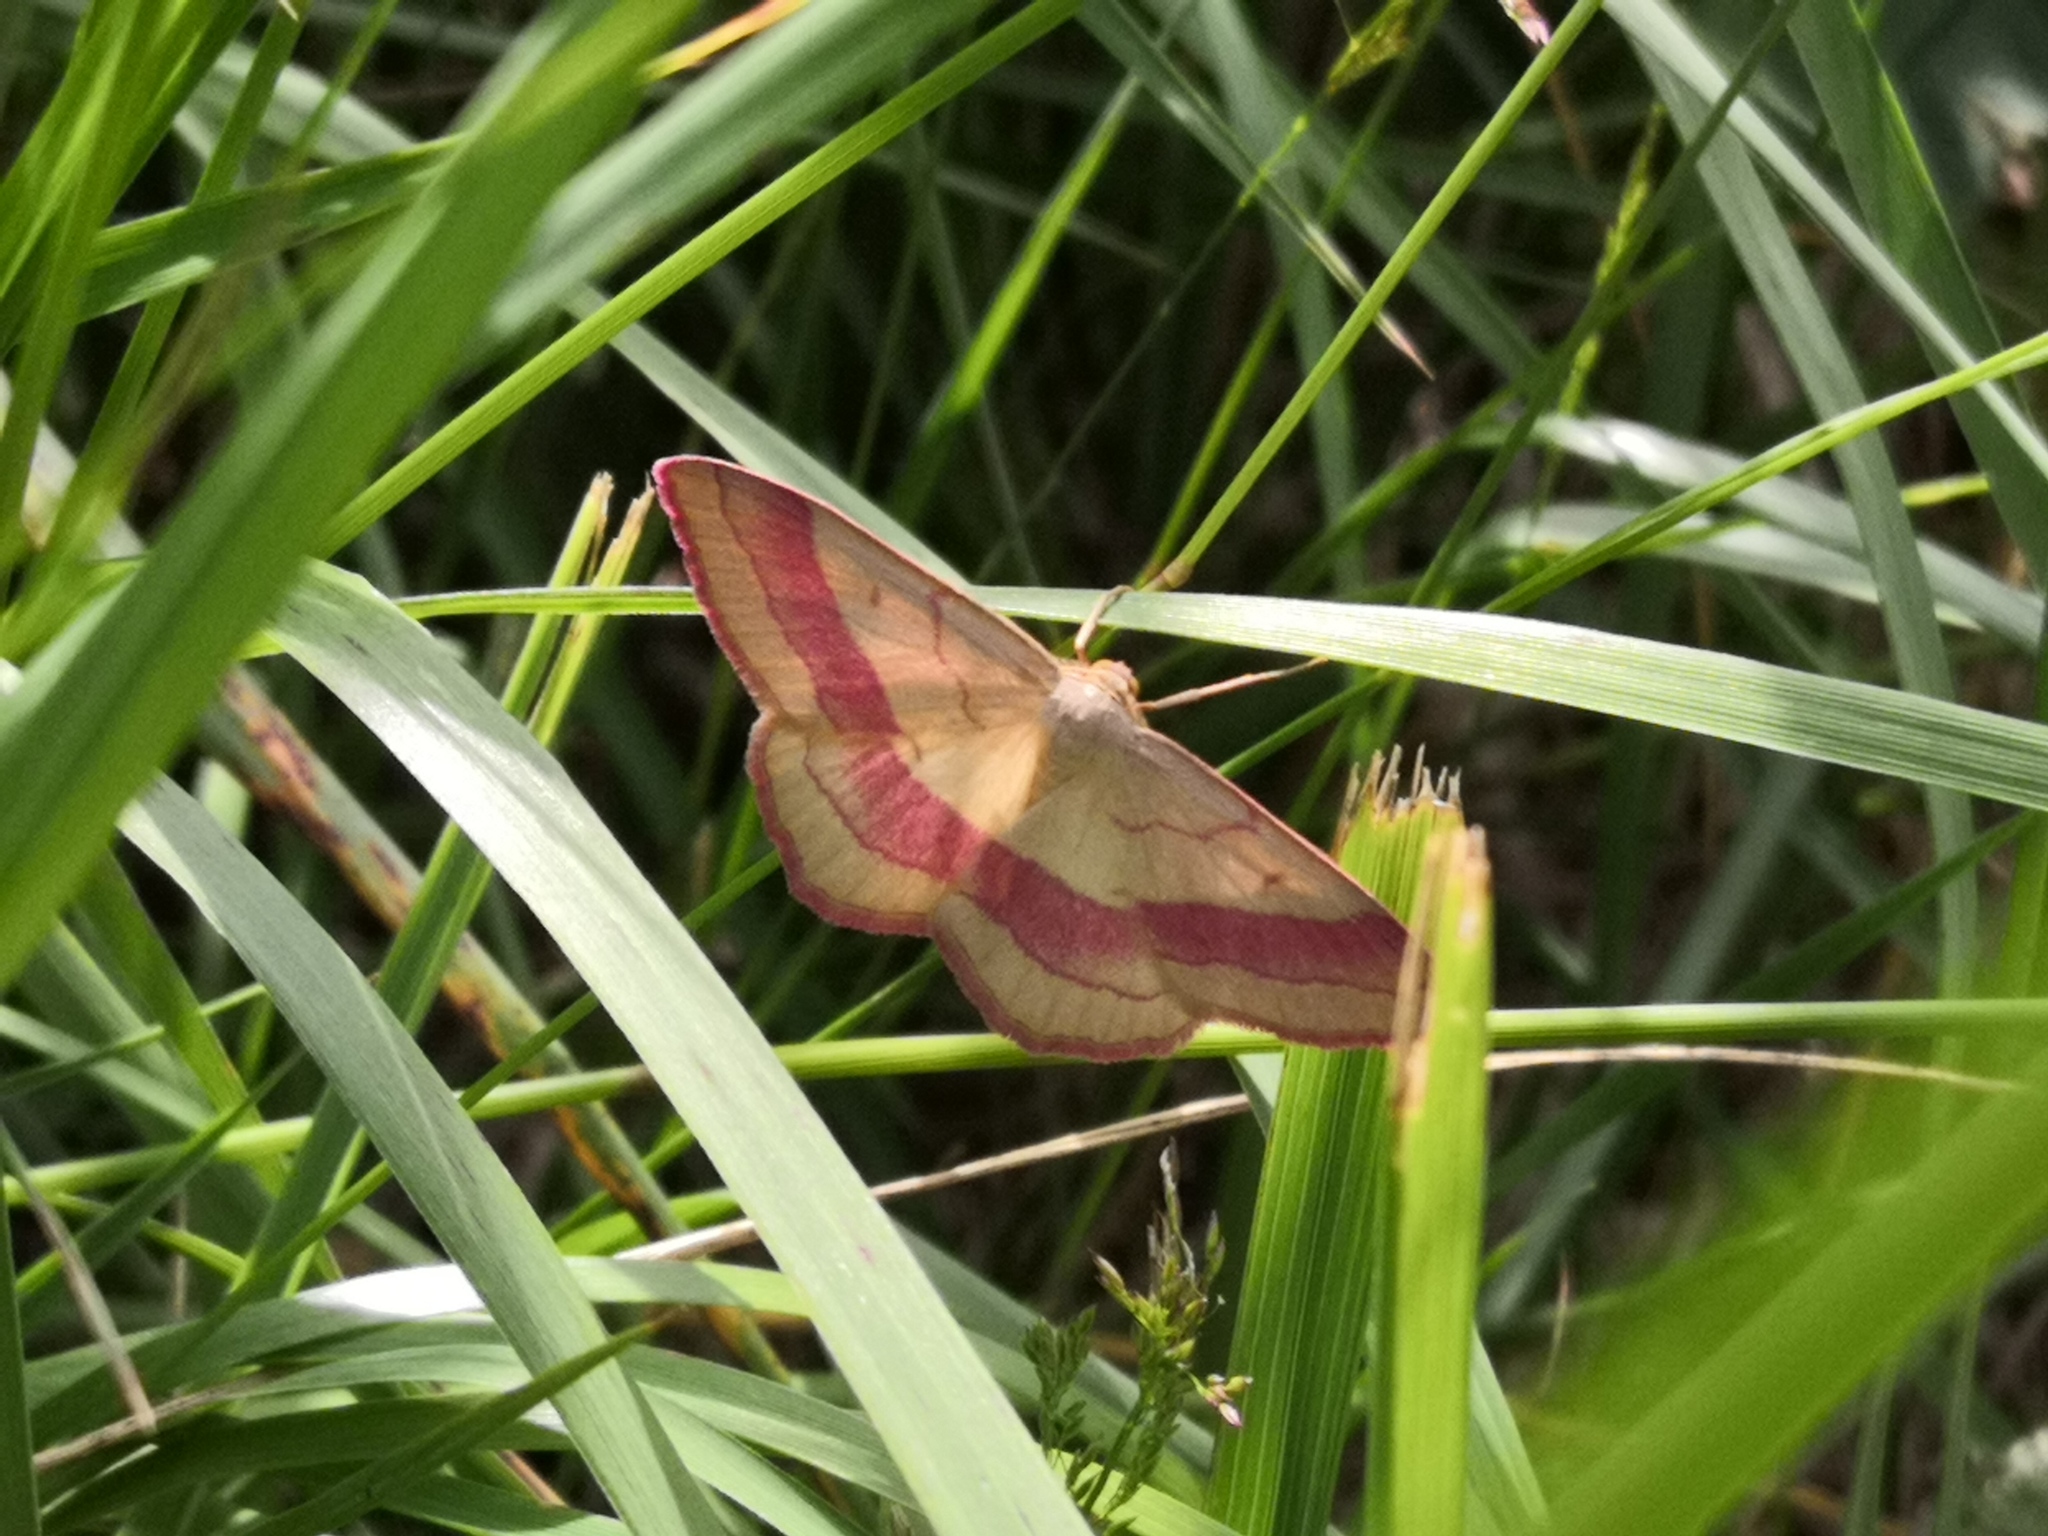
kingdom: Animalia
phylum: Arthropoda
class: Insecta
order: Lepidoptera
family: Geometridae
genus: Rhodostrophia
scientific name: Rhodostrophia vibicaria
